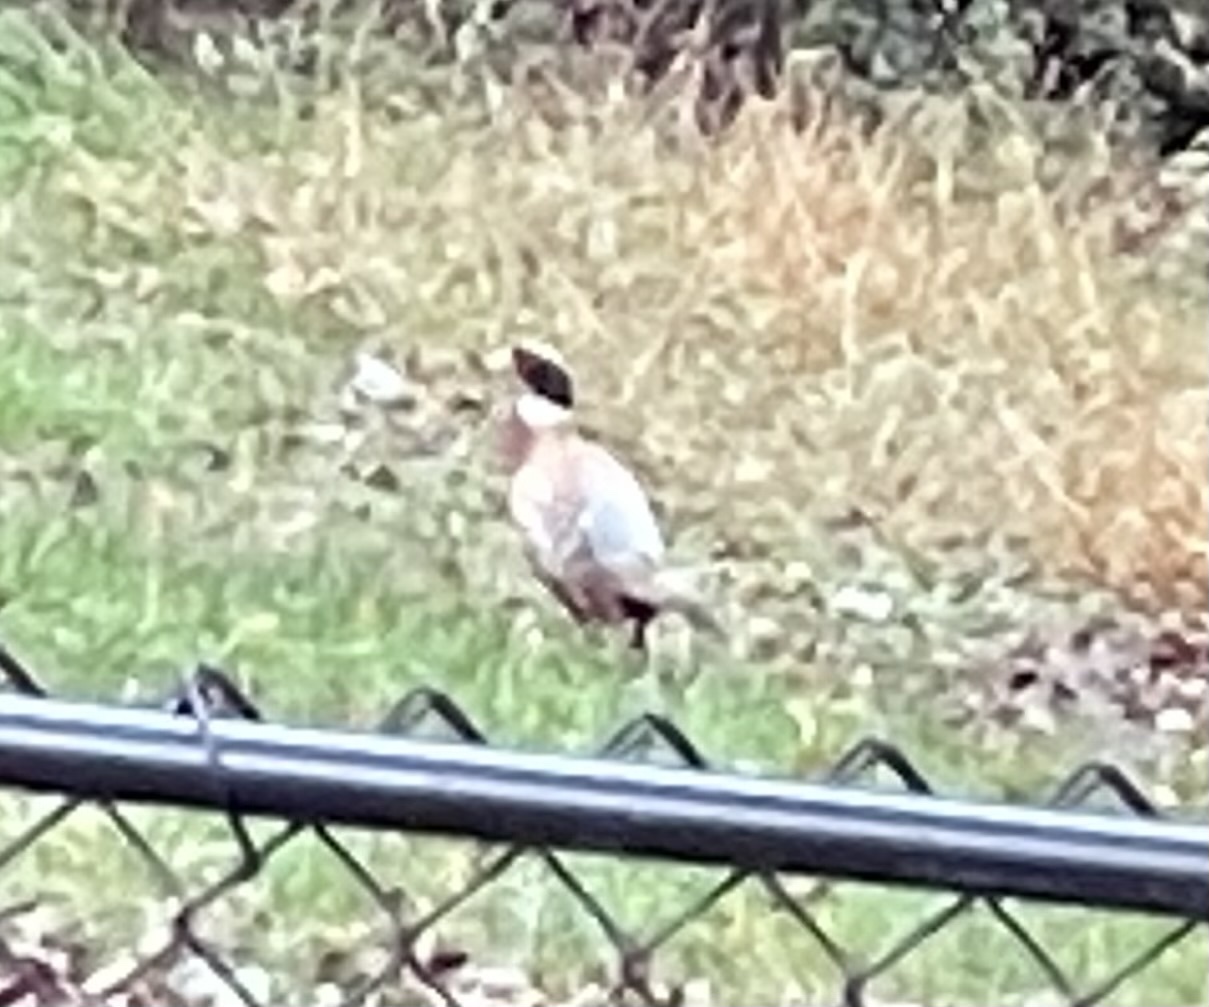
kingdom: Animalia
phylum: Chordata
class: Aves
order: Galliformes
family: Phasianidae
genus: Phasianus
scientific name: Phasianus colchicus
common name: Common pheasant
